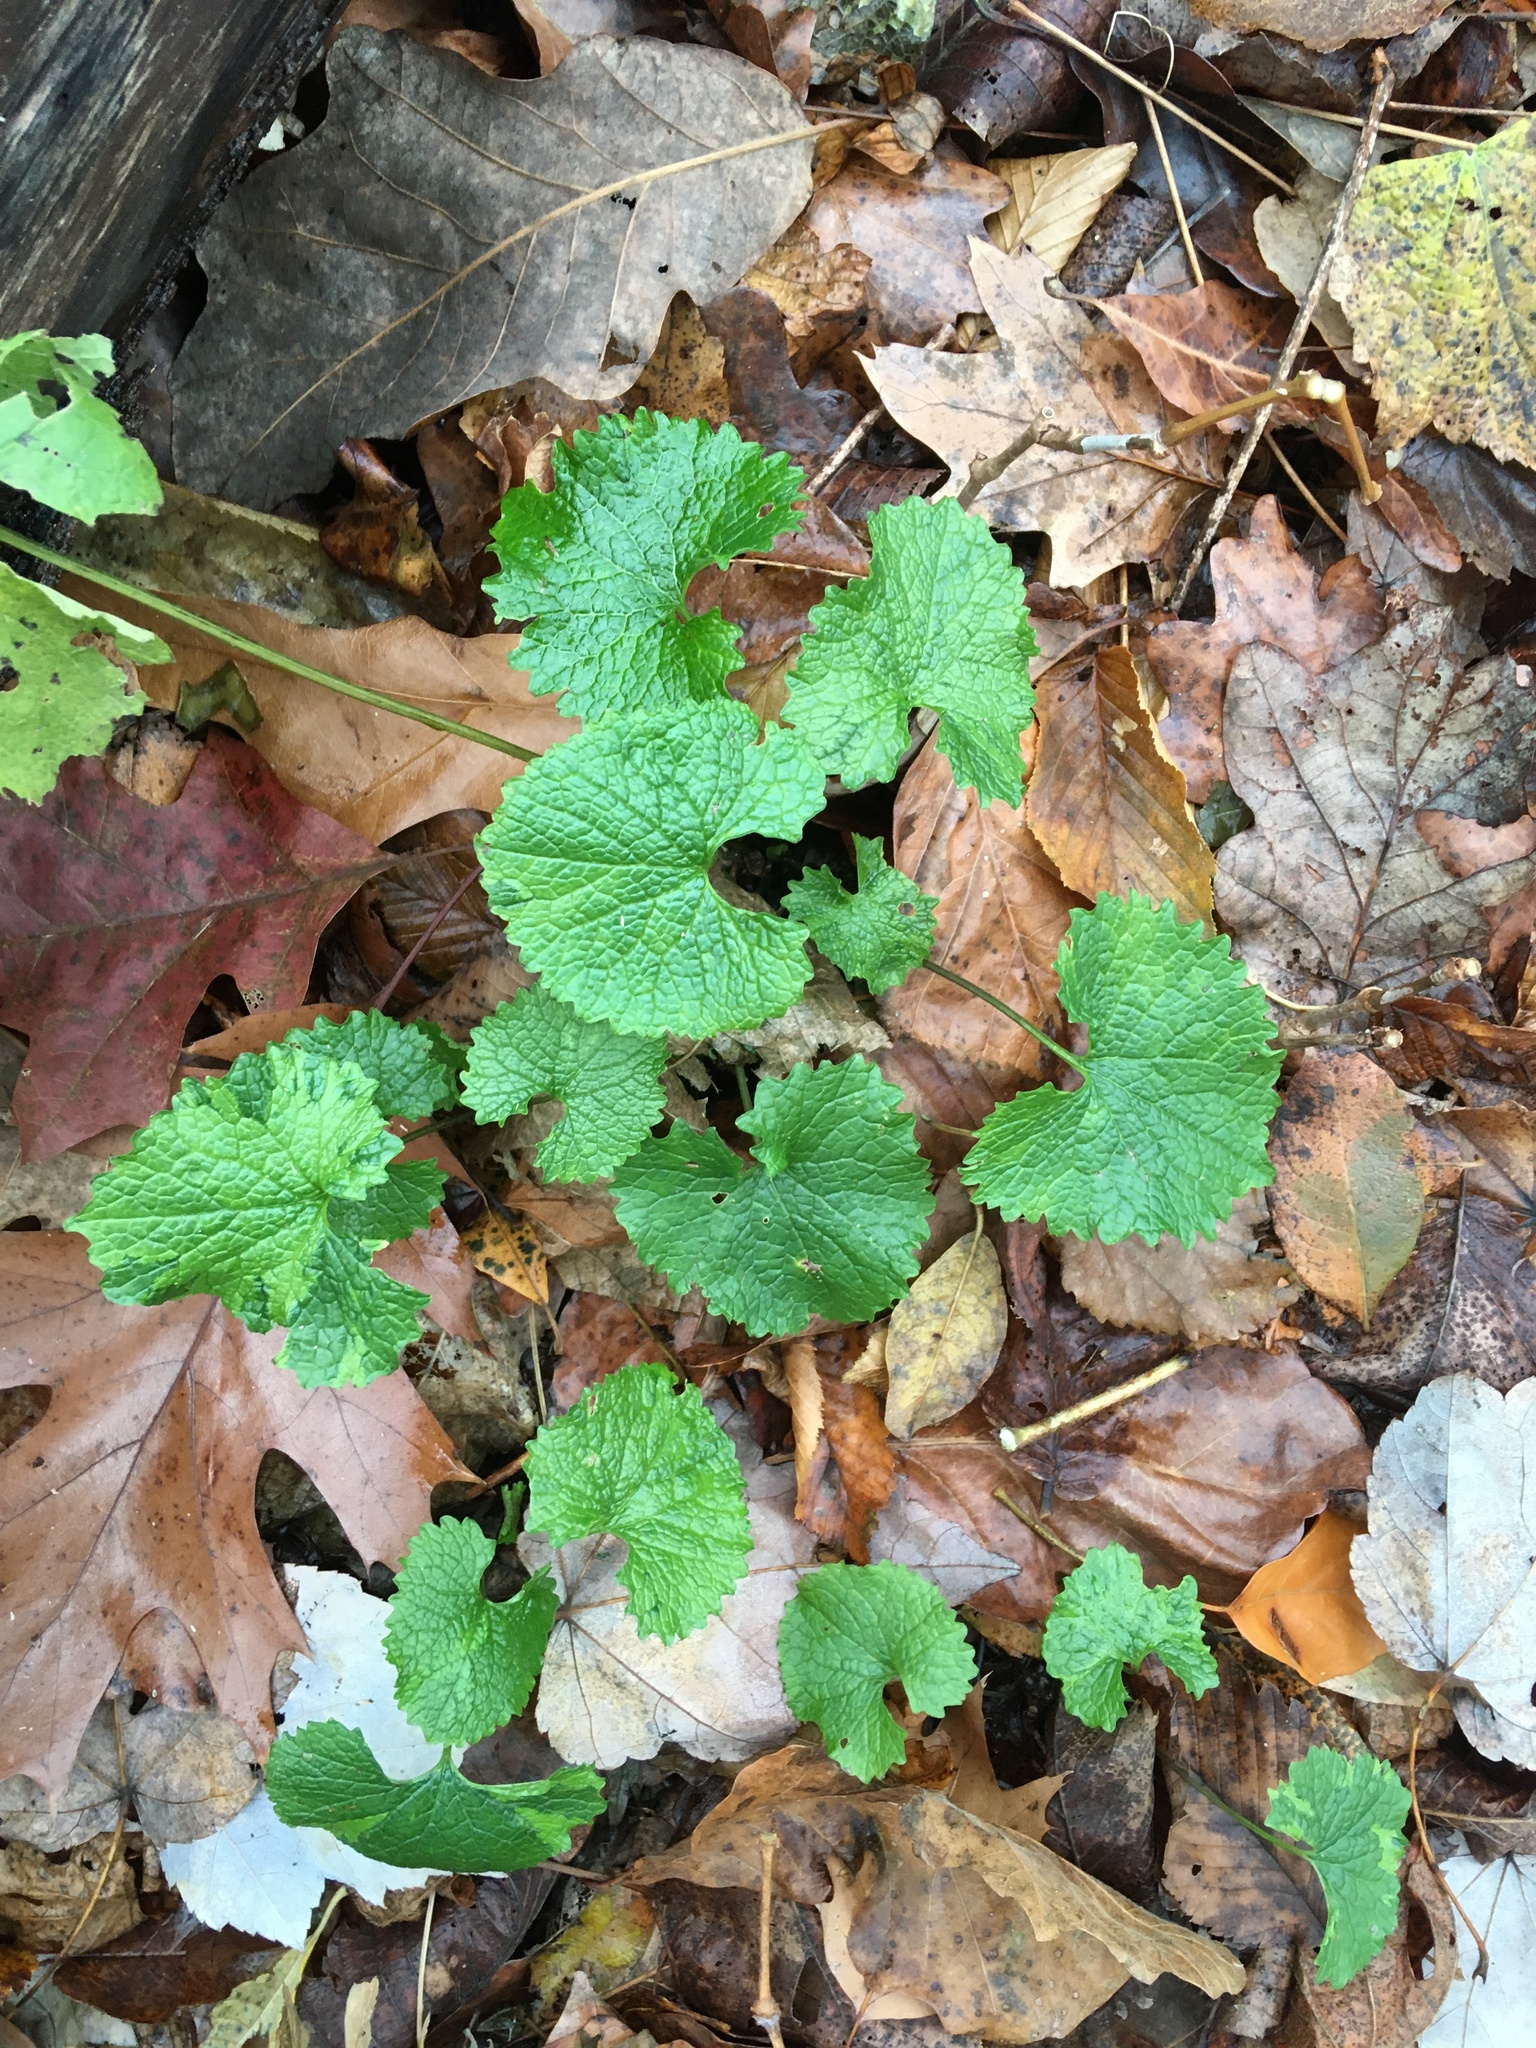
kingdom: Plantae
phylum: Tracheophyta
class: Magnoliopsida
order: Brassicales
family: Brassicaceae
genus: Alliaria
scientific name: Alliaria petiolata
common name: Garlic mustard
